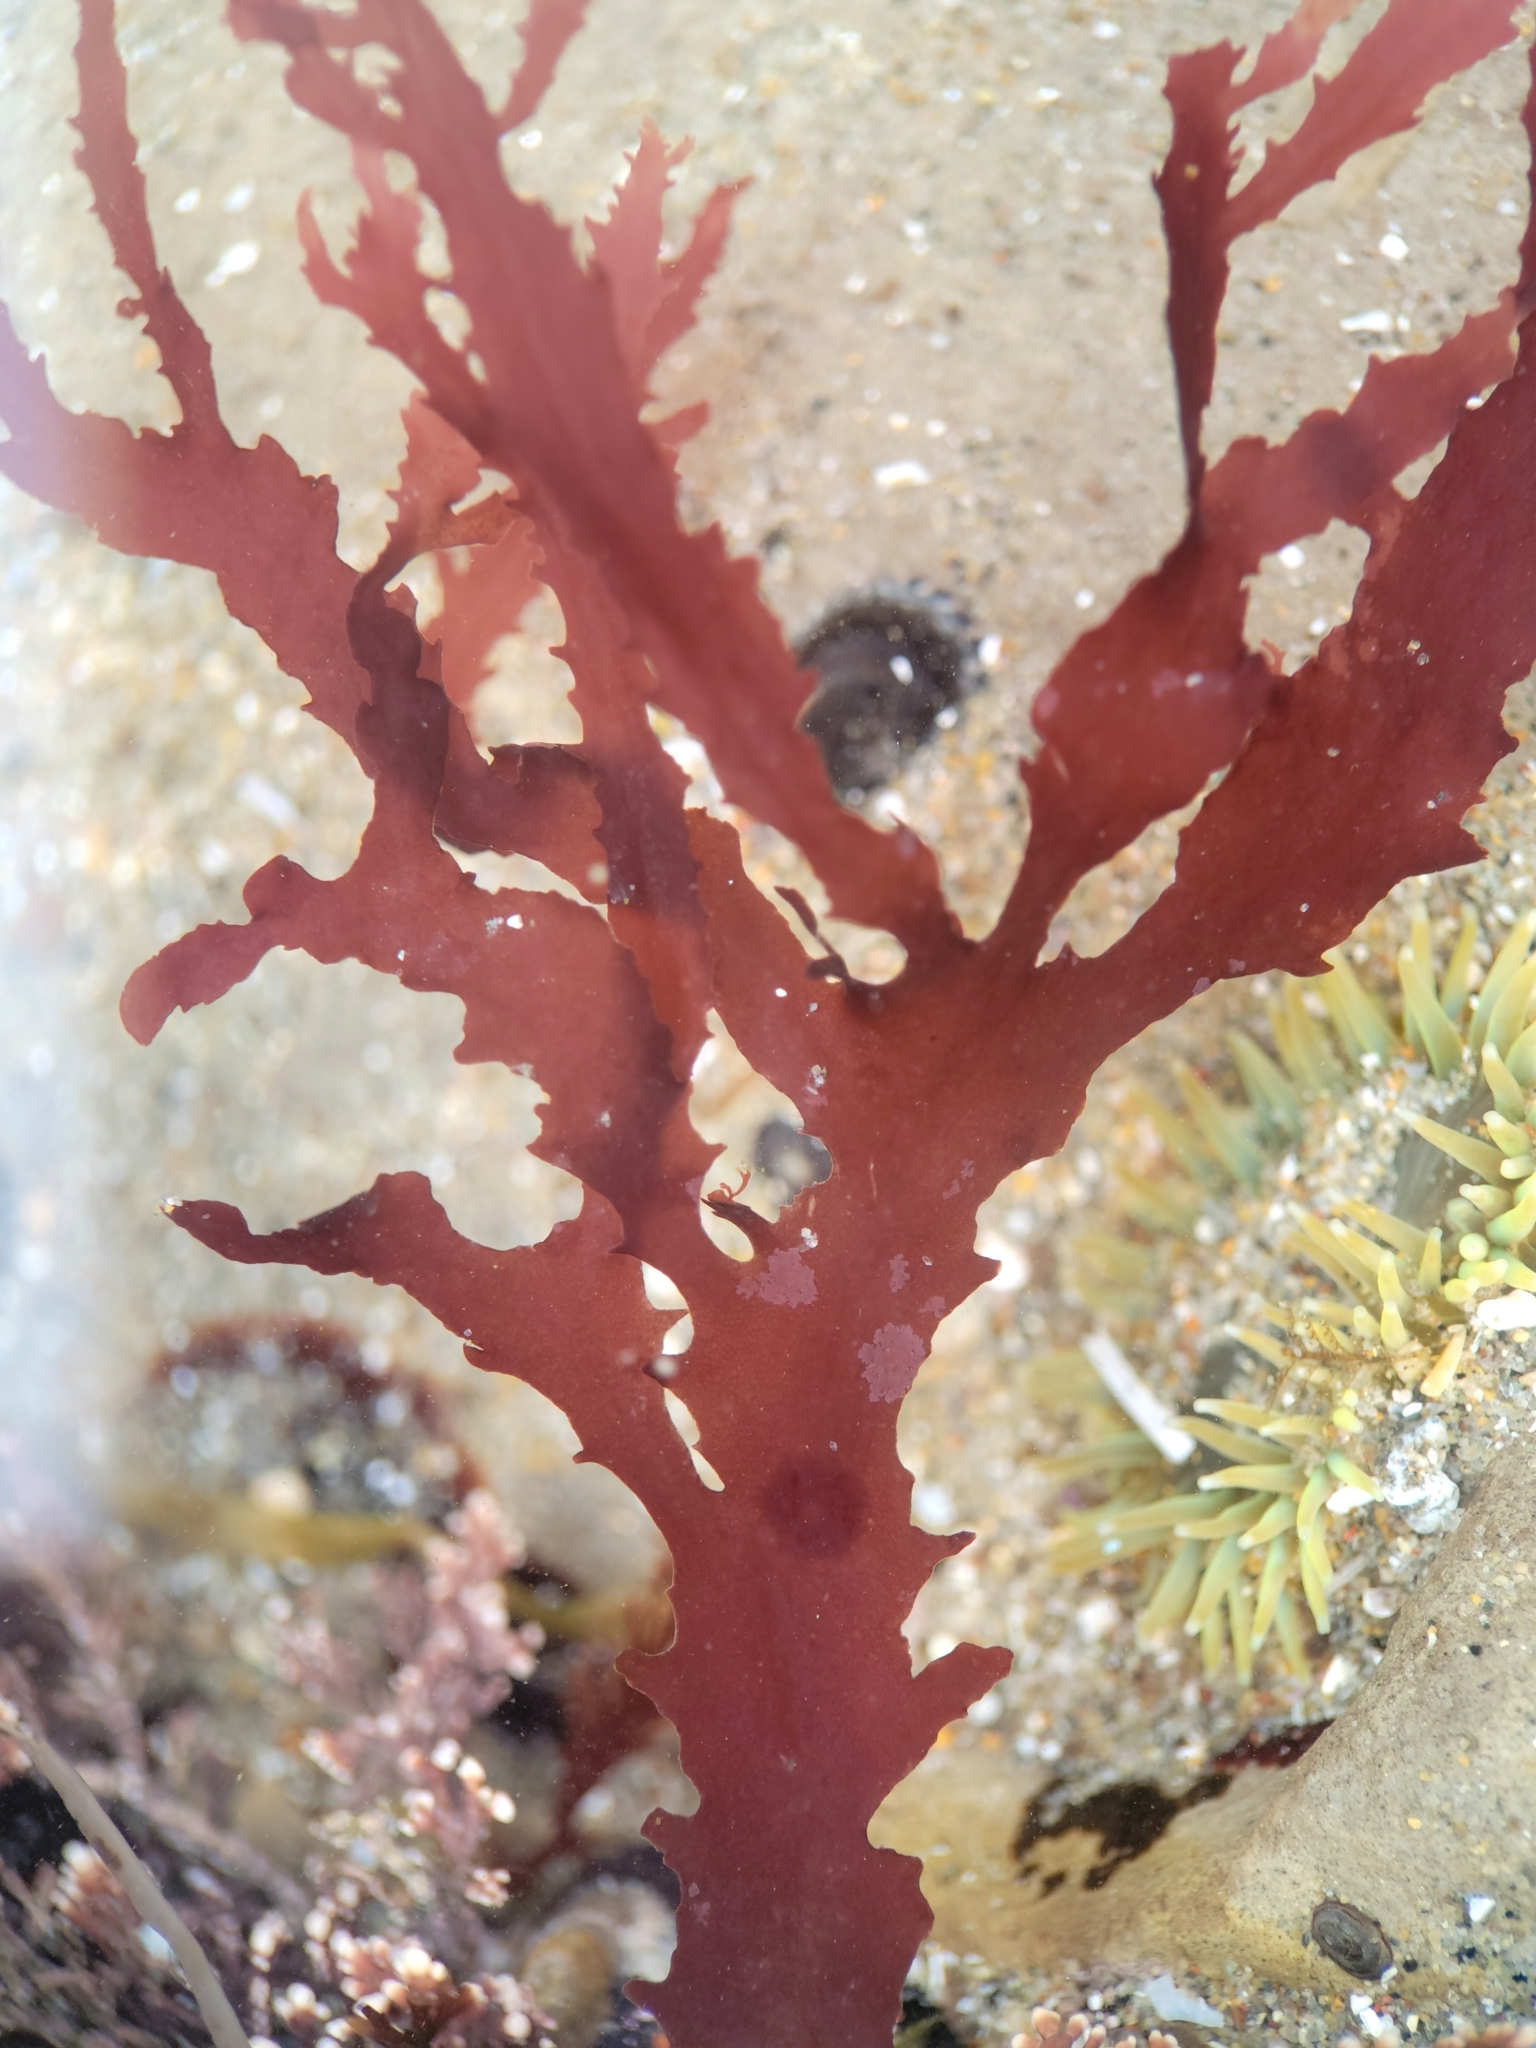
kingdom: Plantae
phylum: Rhodophyta
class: Florideophyceae
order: Ceramiales
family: Delesseriaceae
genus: Nienburgia
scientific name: Nienburgia andersoniana
